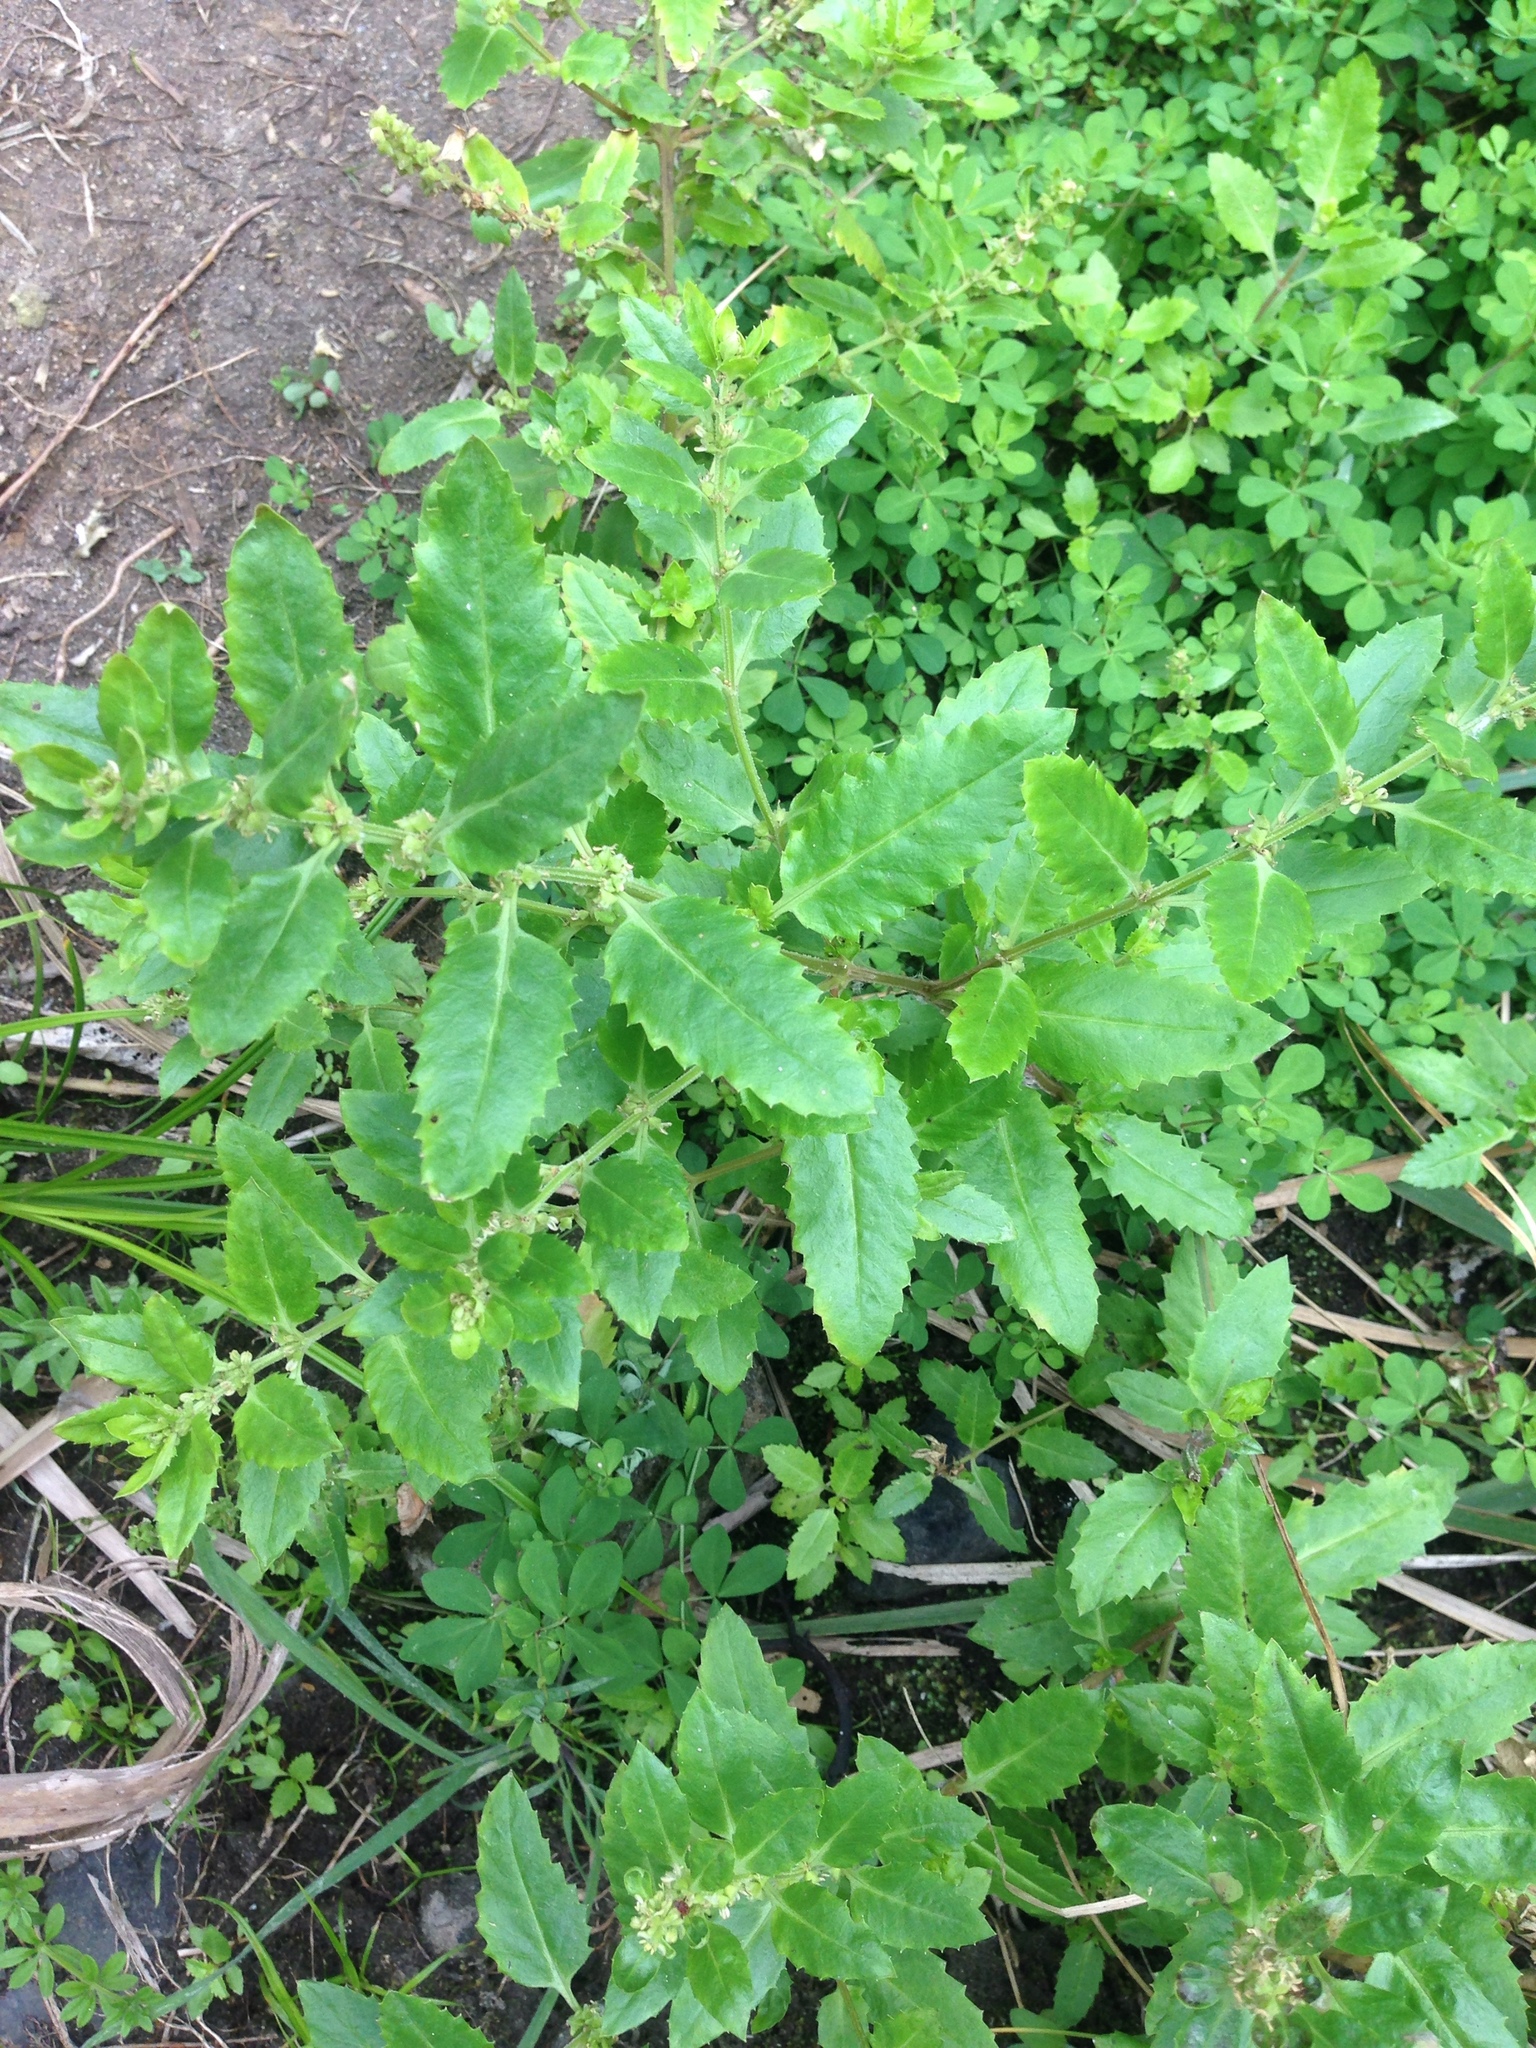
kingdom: Plantae
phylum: Tracheophyta
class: Magnoliopsida
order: Saxifragales
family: Haloragaceae
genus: Haloragis
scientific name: Haloragis erecta
